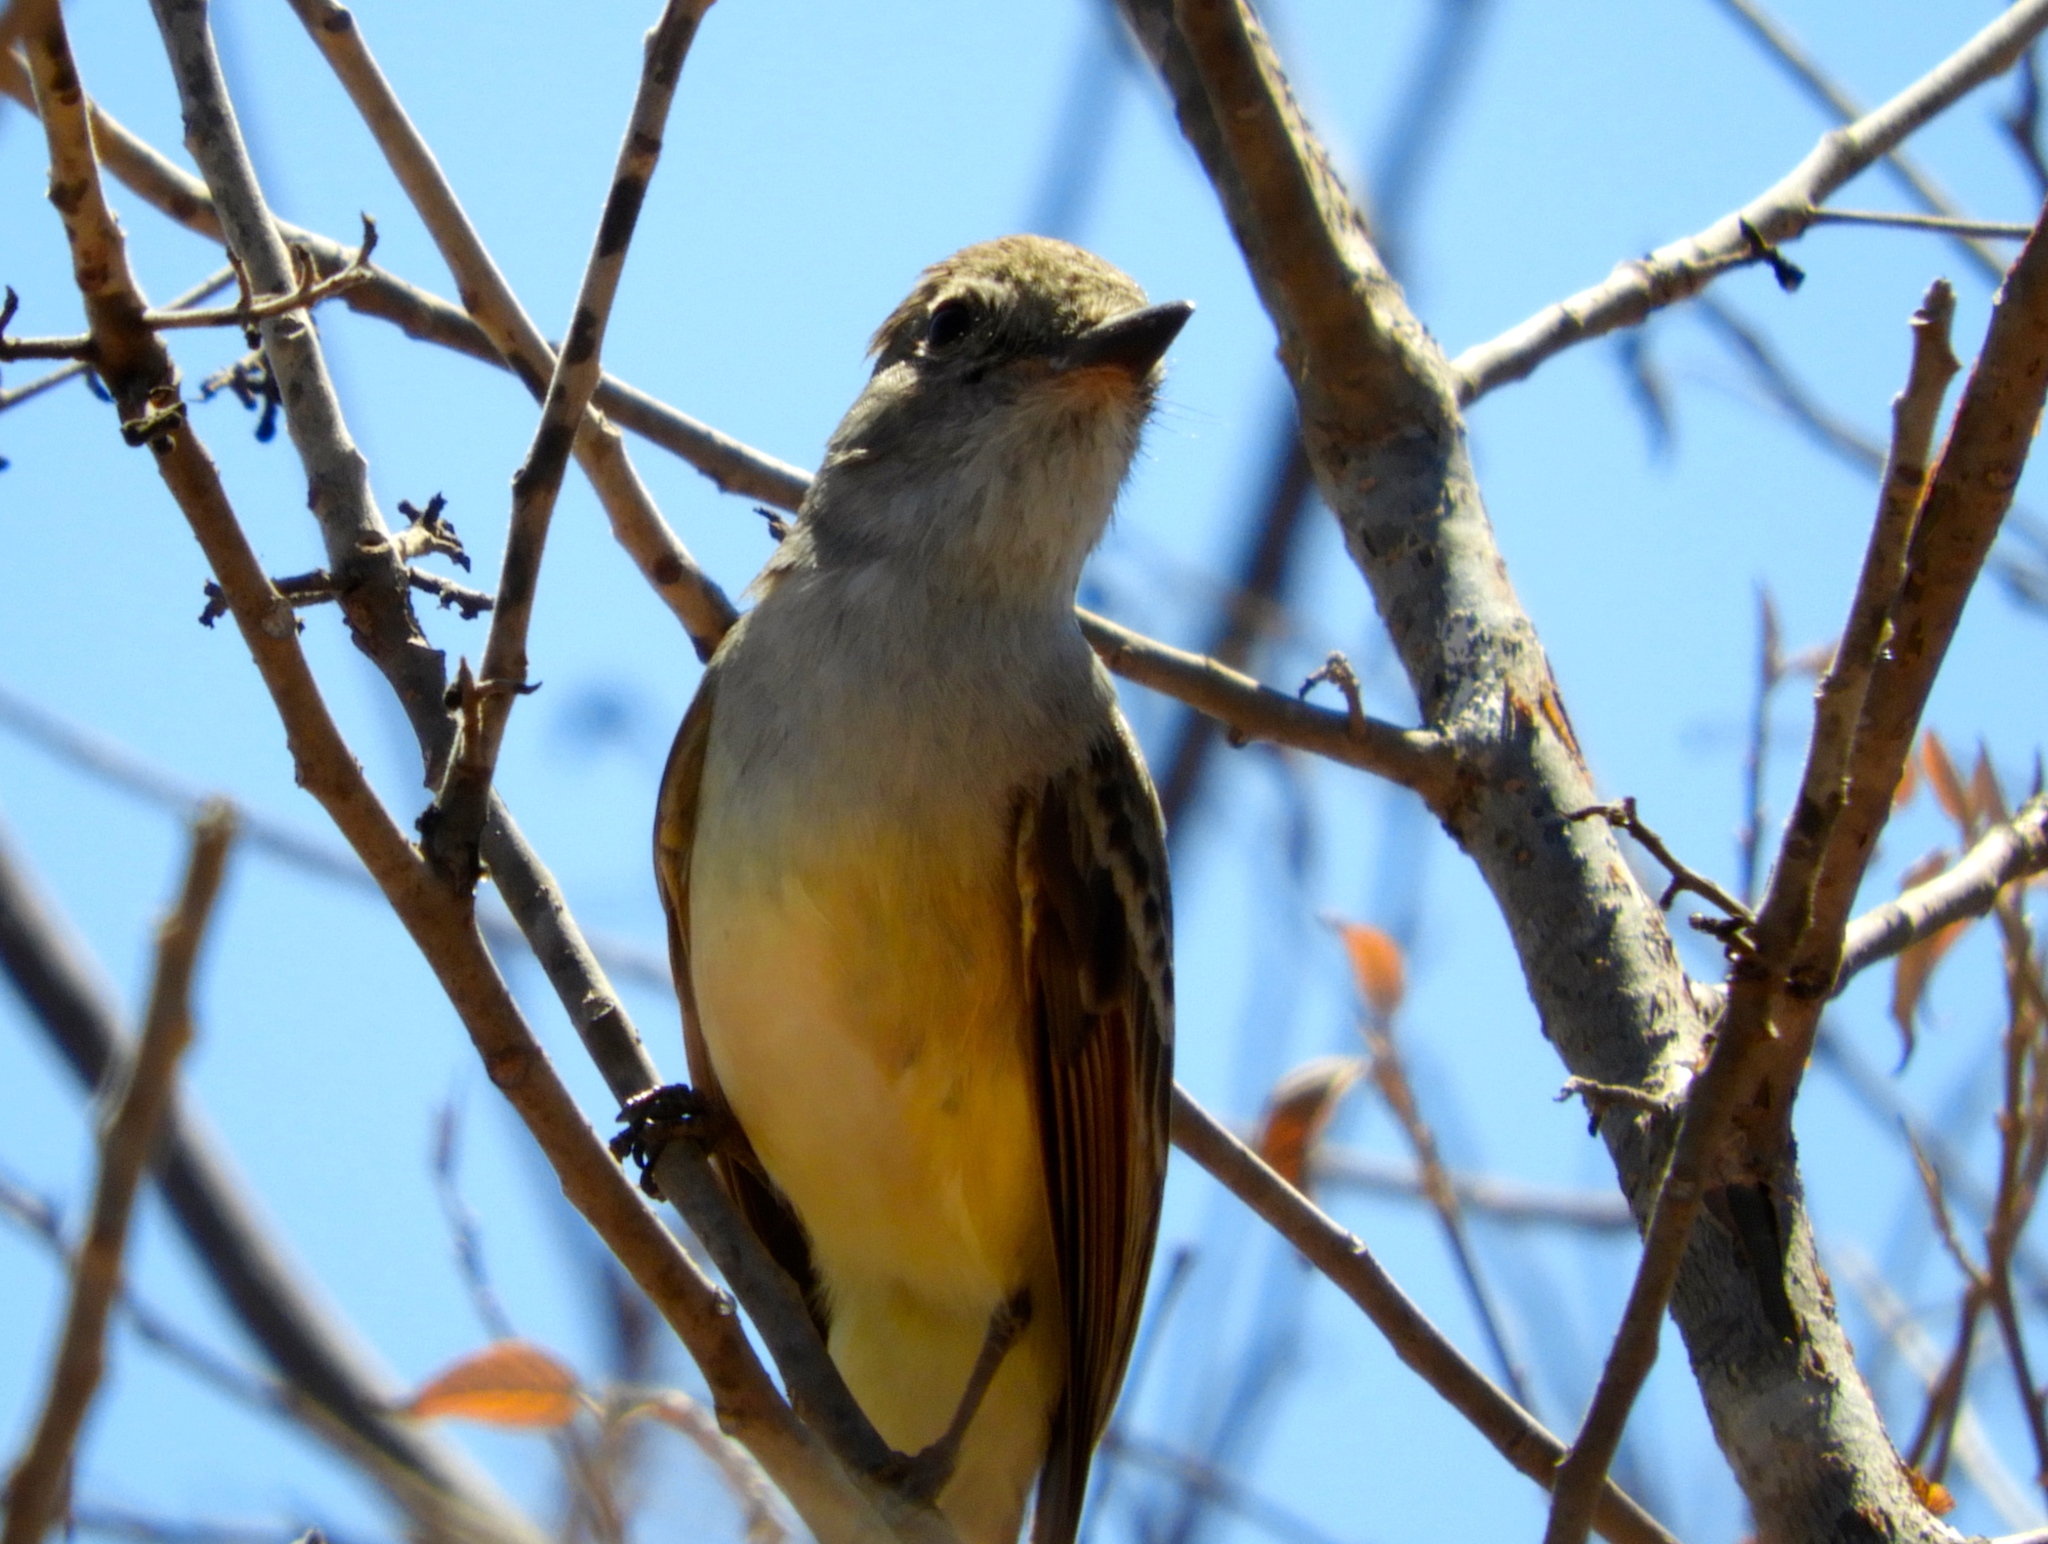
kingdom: Animalia
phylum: Chordata
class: Aves
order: Passeriformes
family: Tyrannidae
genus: Myiarchus
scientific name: Myiarchus
